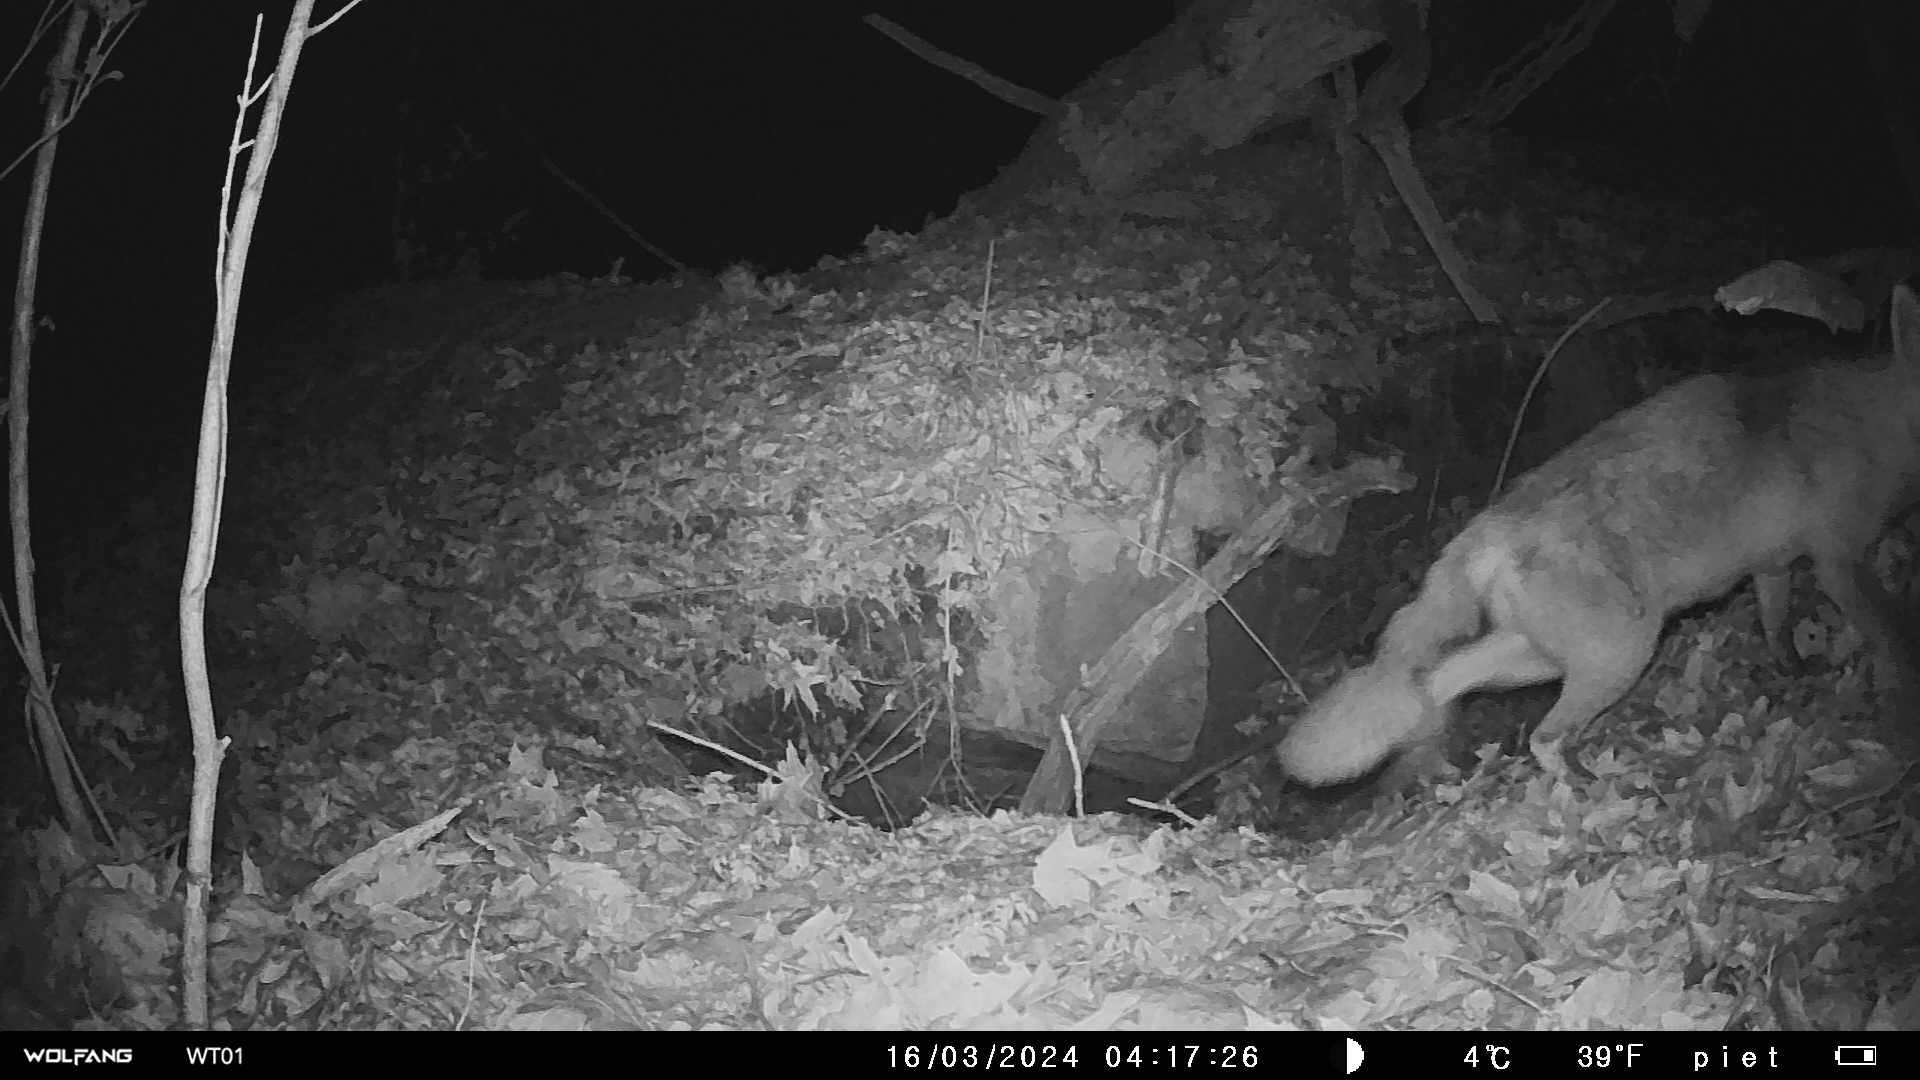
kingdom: Animalia
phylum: Chordata
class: Mammalia
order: Carnivora
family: Canidae
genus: Vulpes
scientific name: Vulpes vulpes
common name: Red fox
